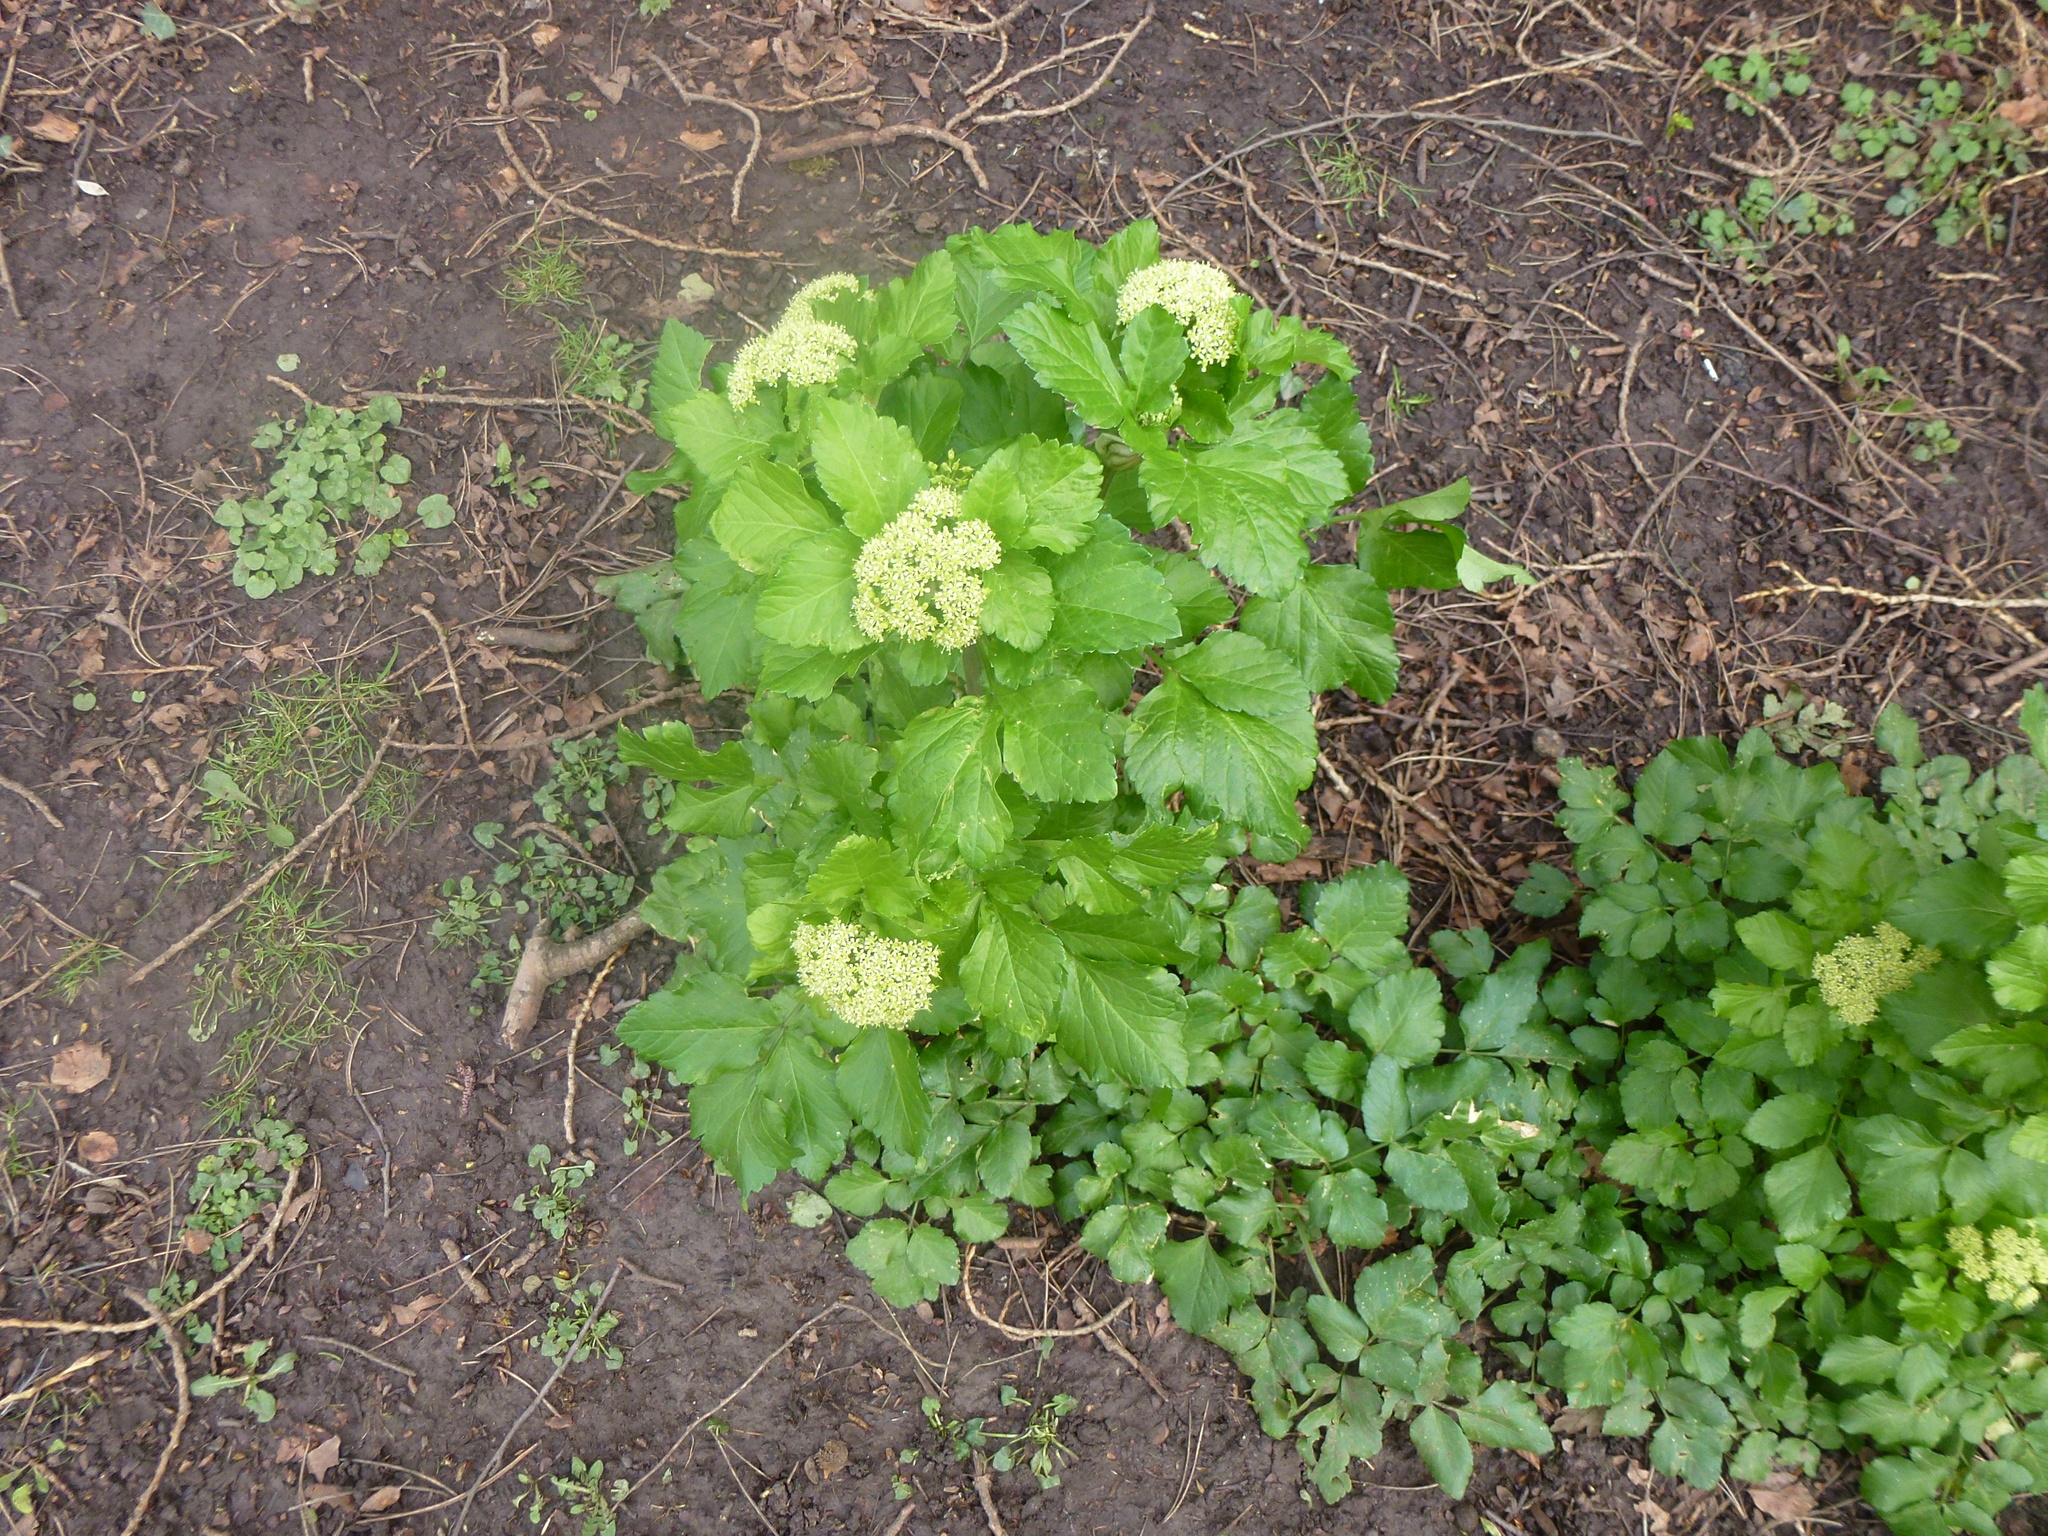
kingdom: Plantae
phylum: Tracheophyta
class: Magnoliopsida
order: Apiales
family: Apiaceae
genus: Smyrnium
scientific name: Smyrnium olusatrum
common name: Alexanders
